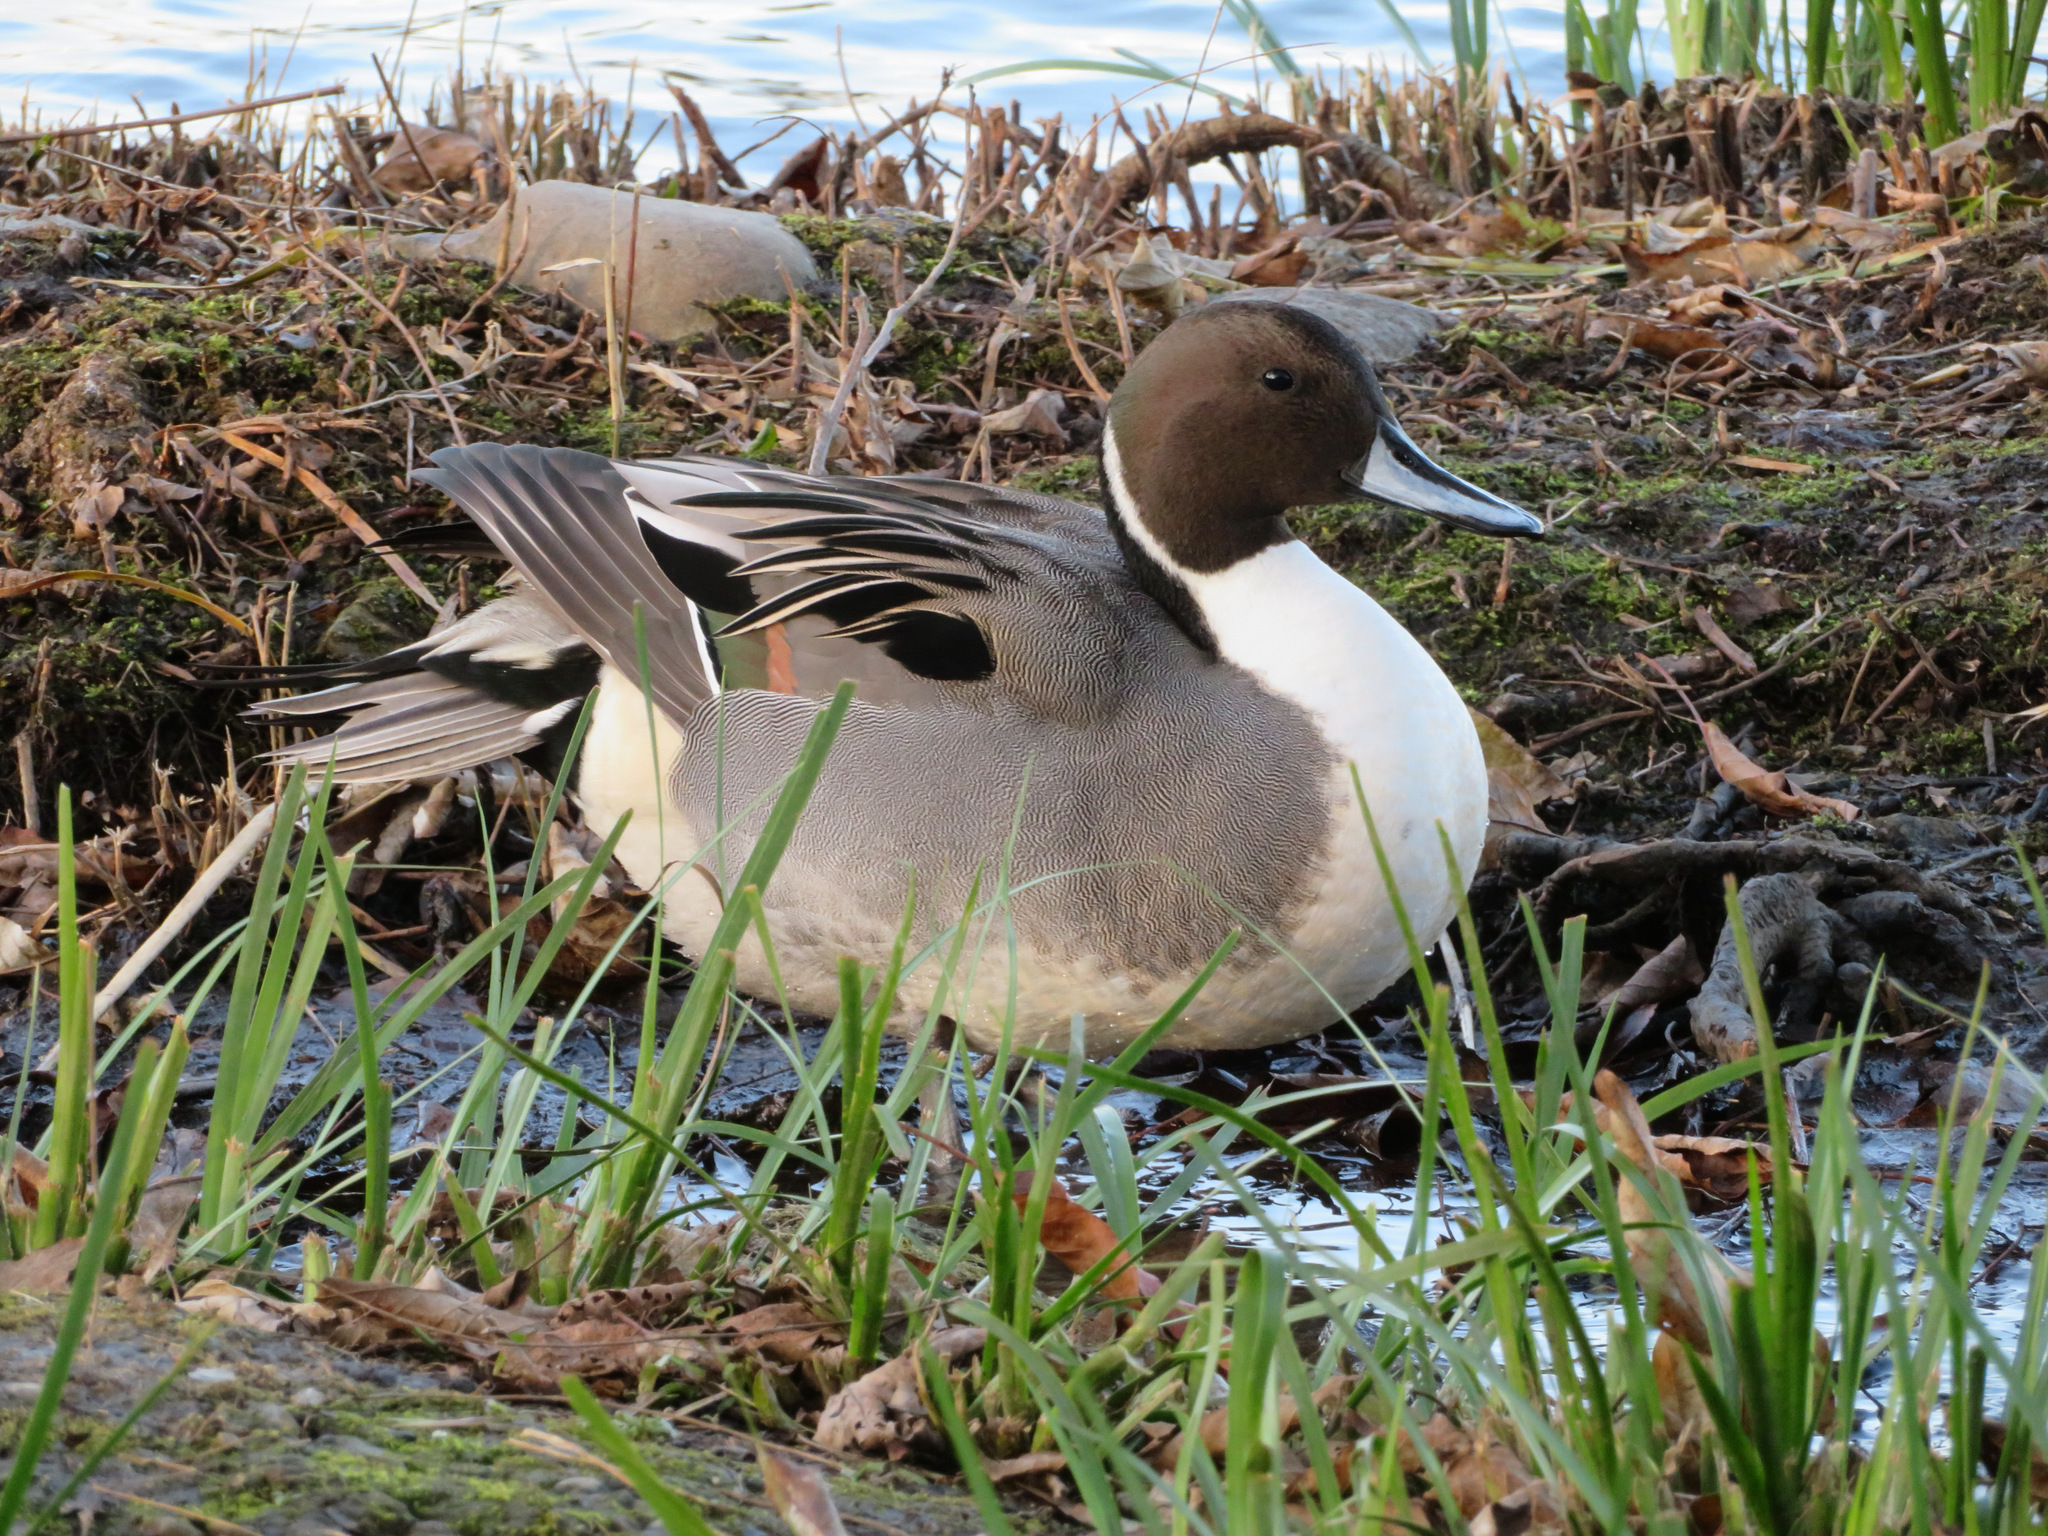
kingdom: Animalia
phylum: Chordata
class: Aves
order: Anseriformes
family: Anatidae
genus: Anas
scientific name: Anas acuta
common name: Northern pintail
